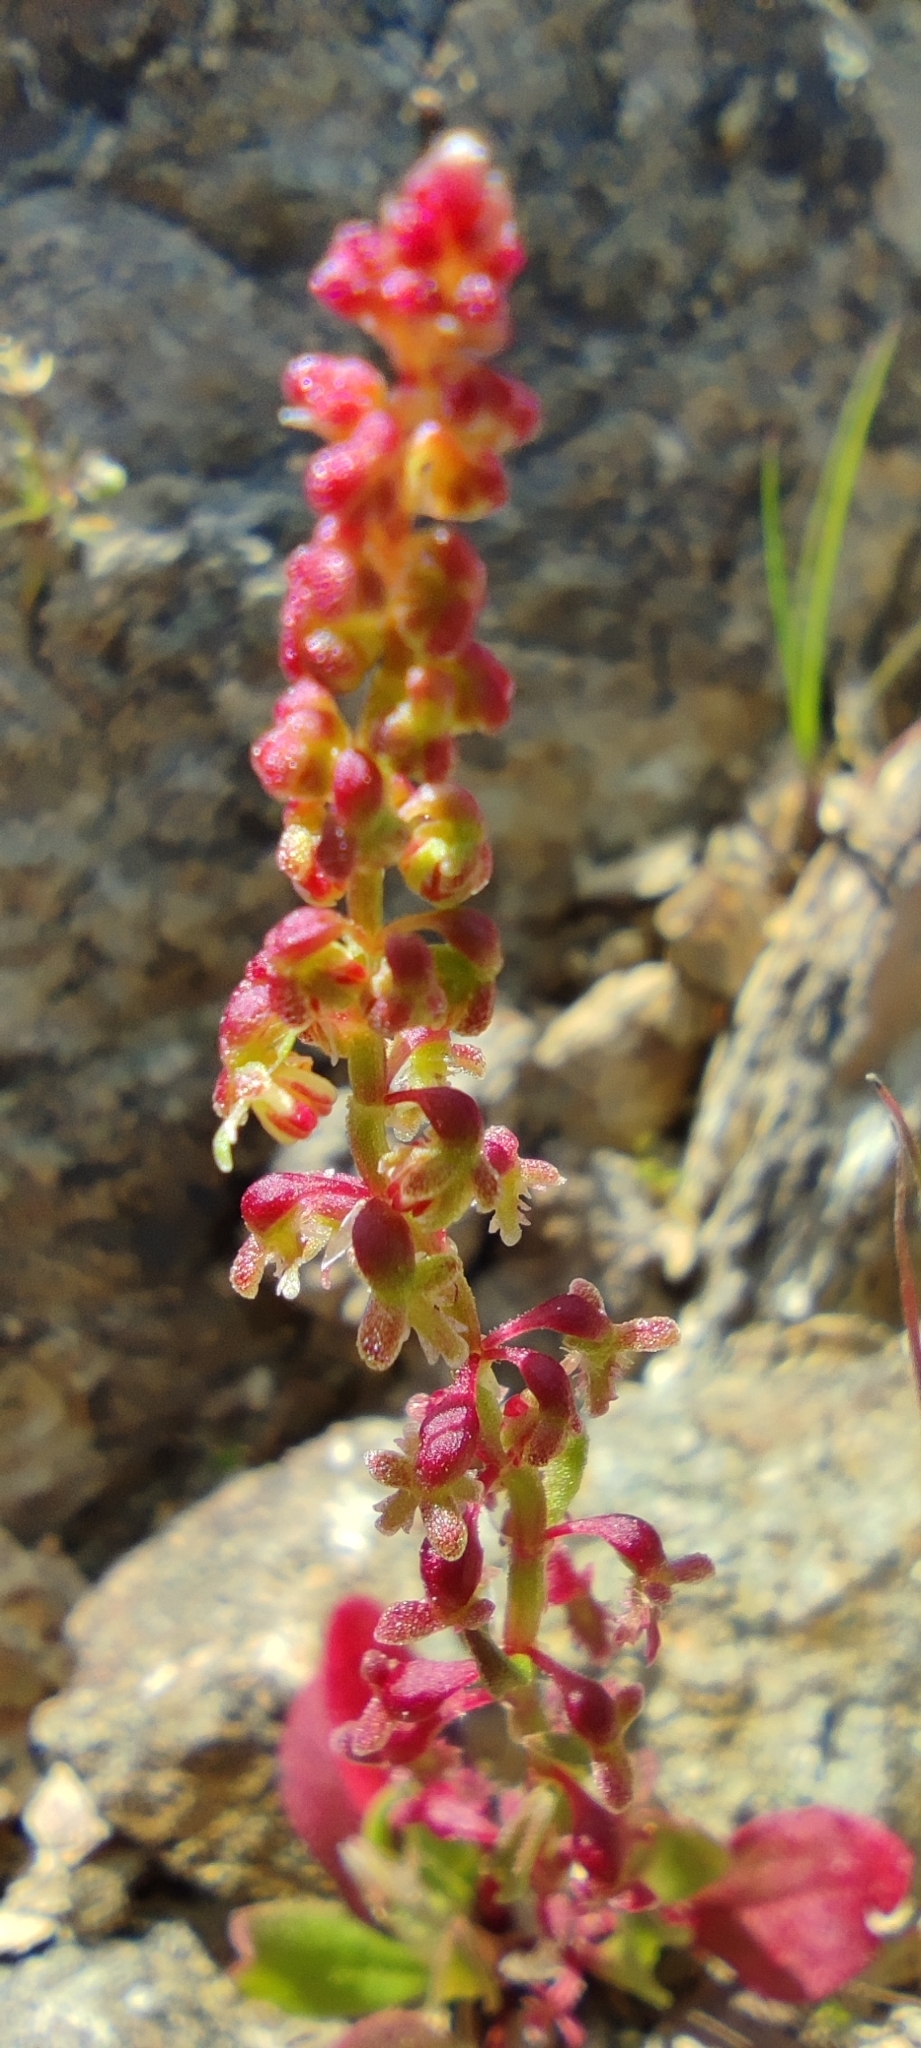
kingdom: Plantae
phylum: Tracheophyta
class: Magnoliopsida
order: Caryophyllales
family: Polygonaceae
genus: Rumex
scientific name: Rumex bucephalophorus
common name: Red dock
